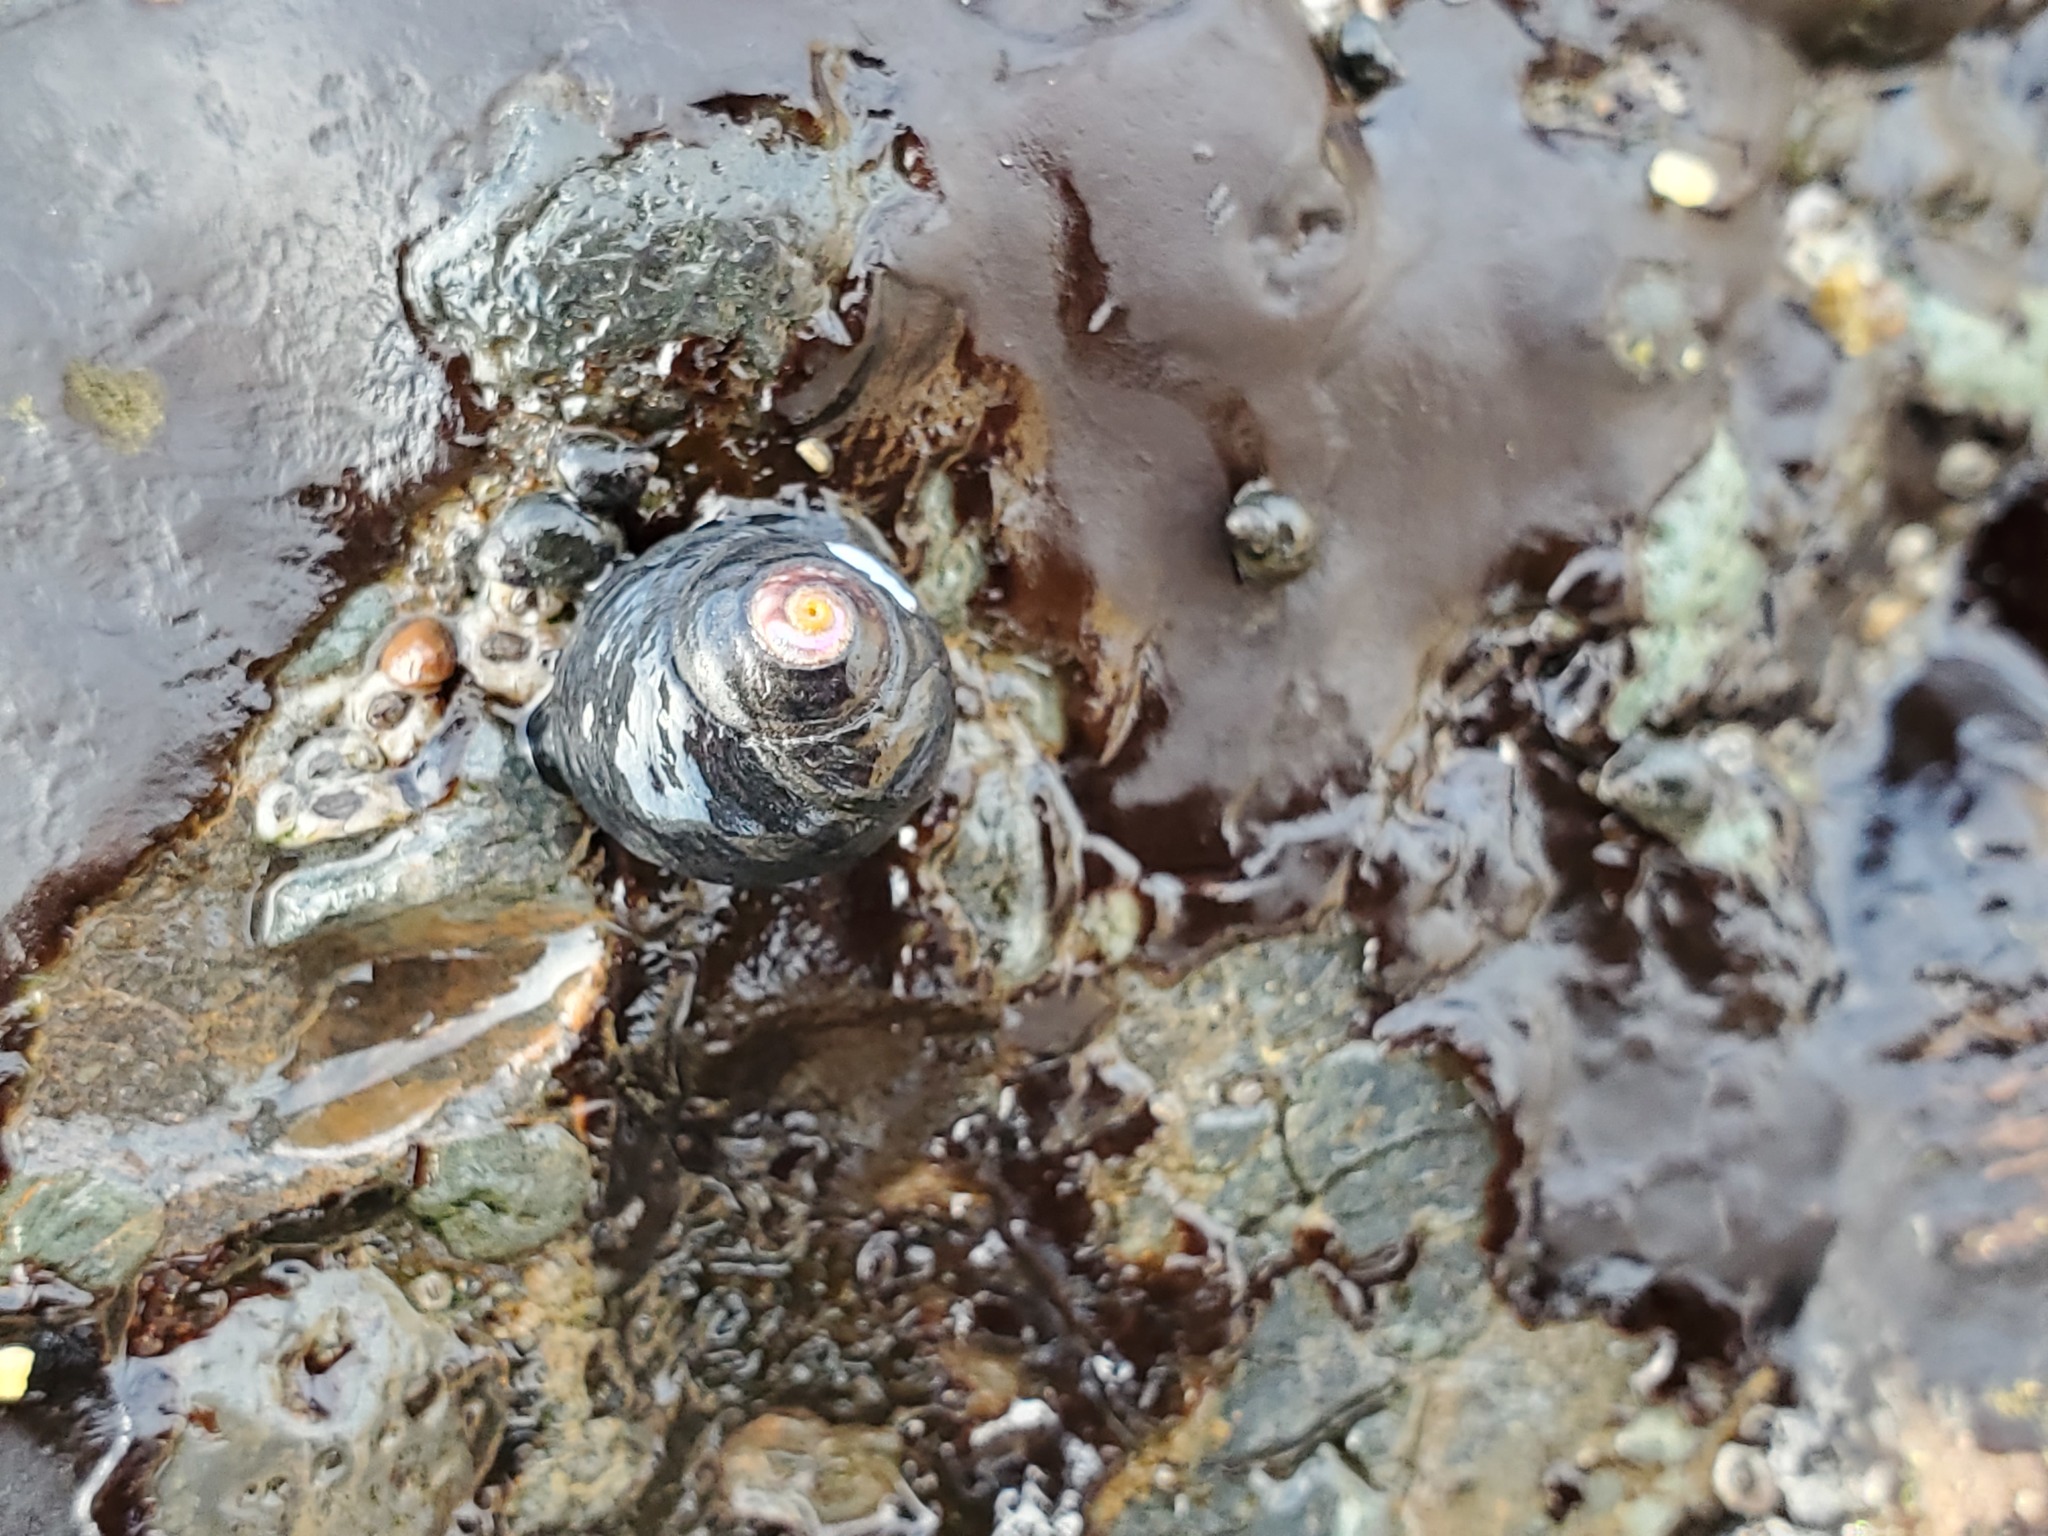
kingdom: Animalia
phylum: Mollusca
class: Gastropoda
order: Trochida
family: Tegulidae
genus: Tegula
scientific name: Tegula funebralis
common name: Black tegula
